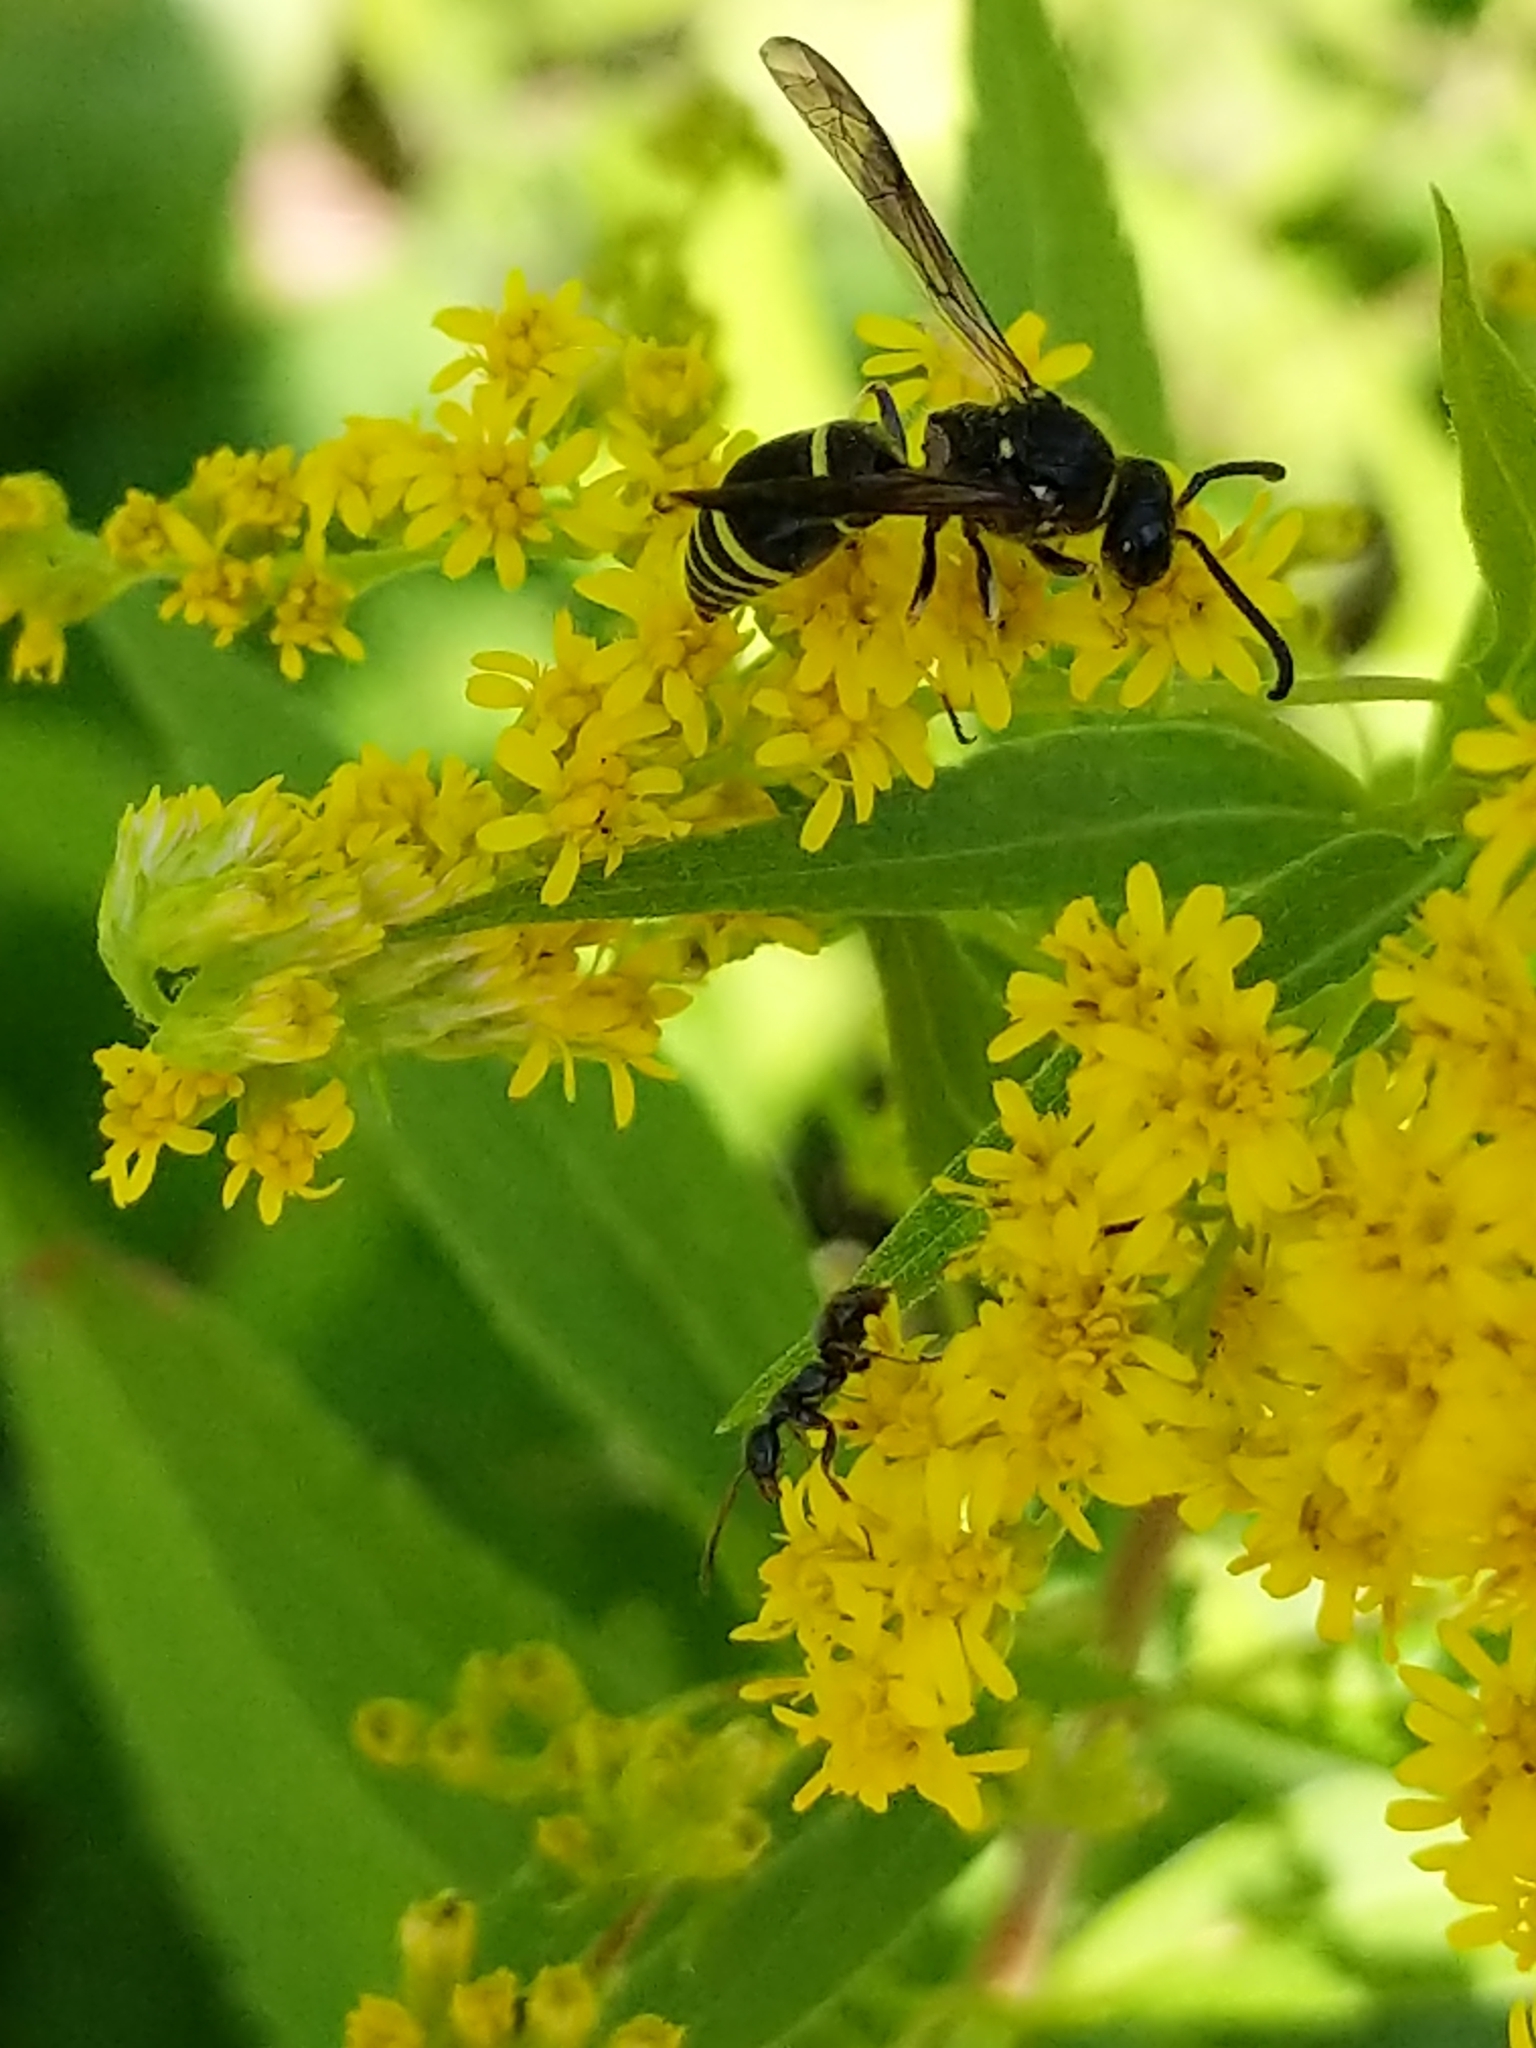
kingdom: Animalia
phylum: Arthropoda
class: Insecta
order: Hymenoptera
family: Vespidae
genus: Ancistrocerus
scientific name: Ancistrocerus
